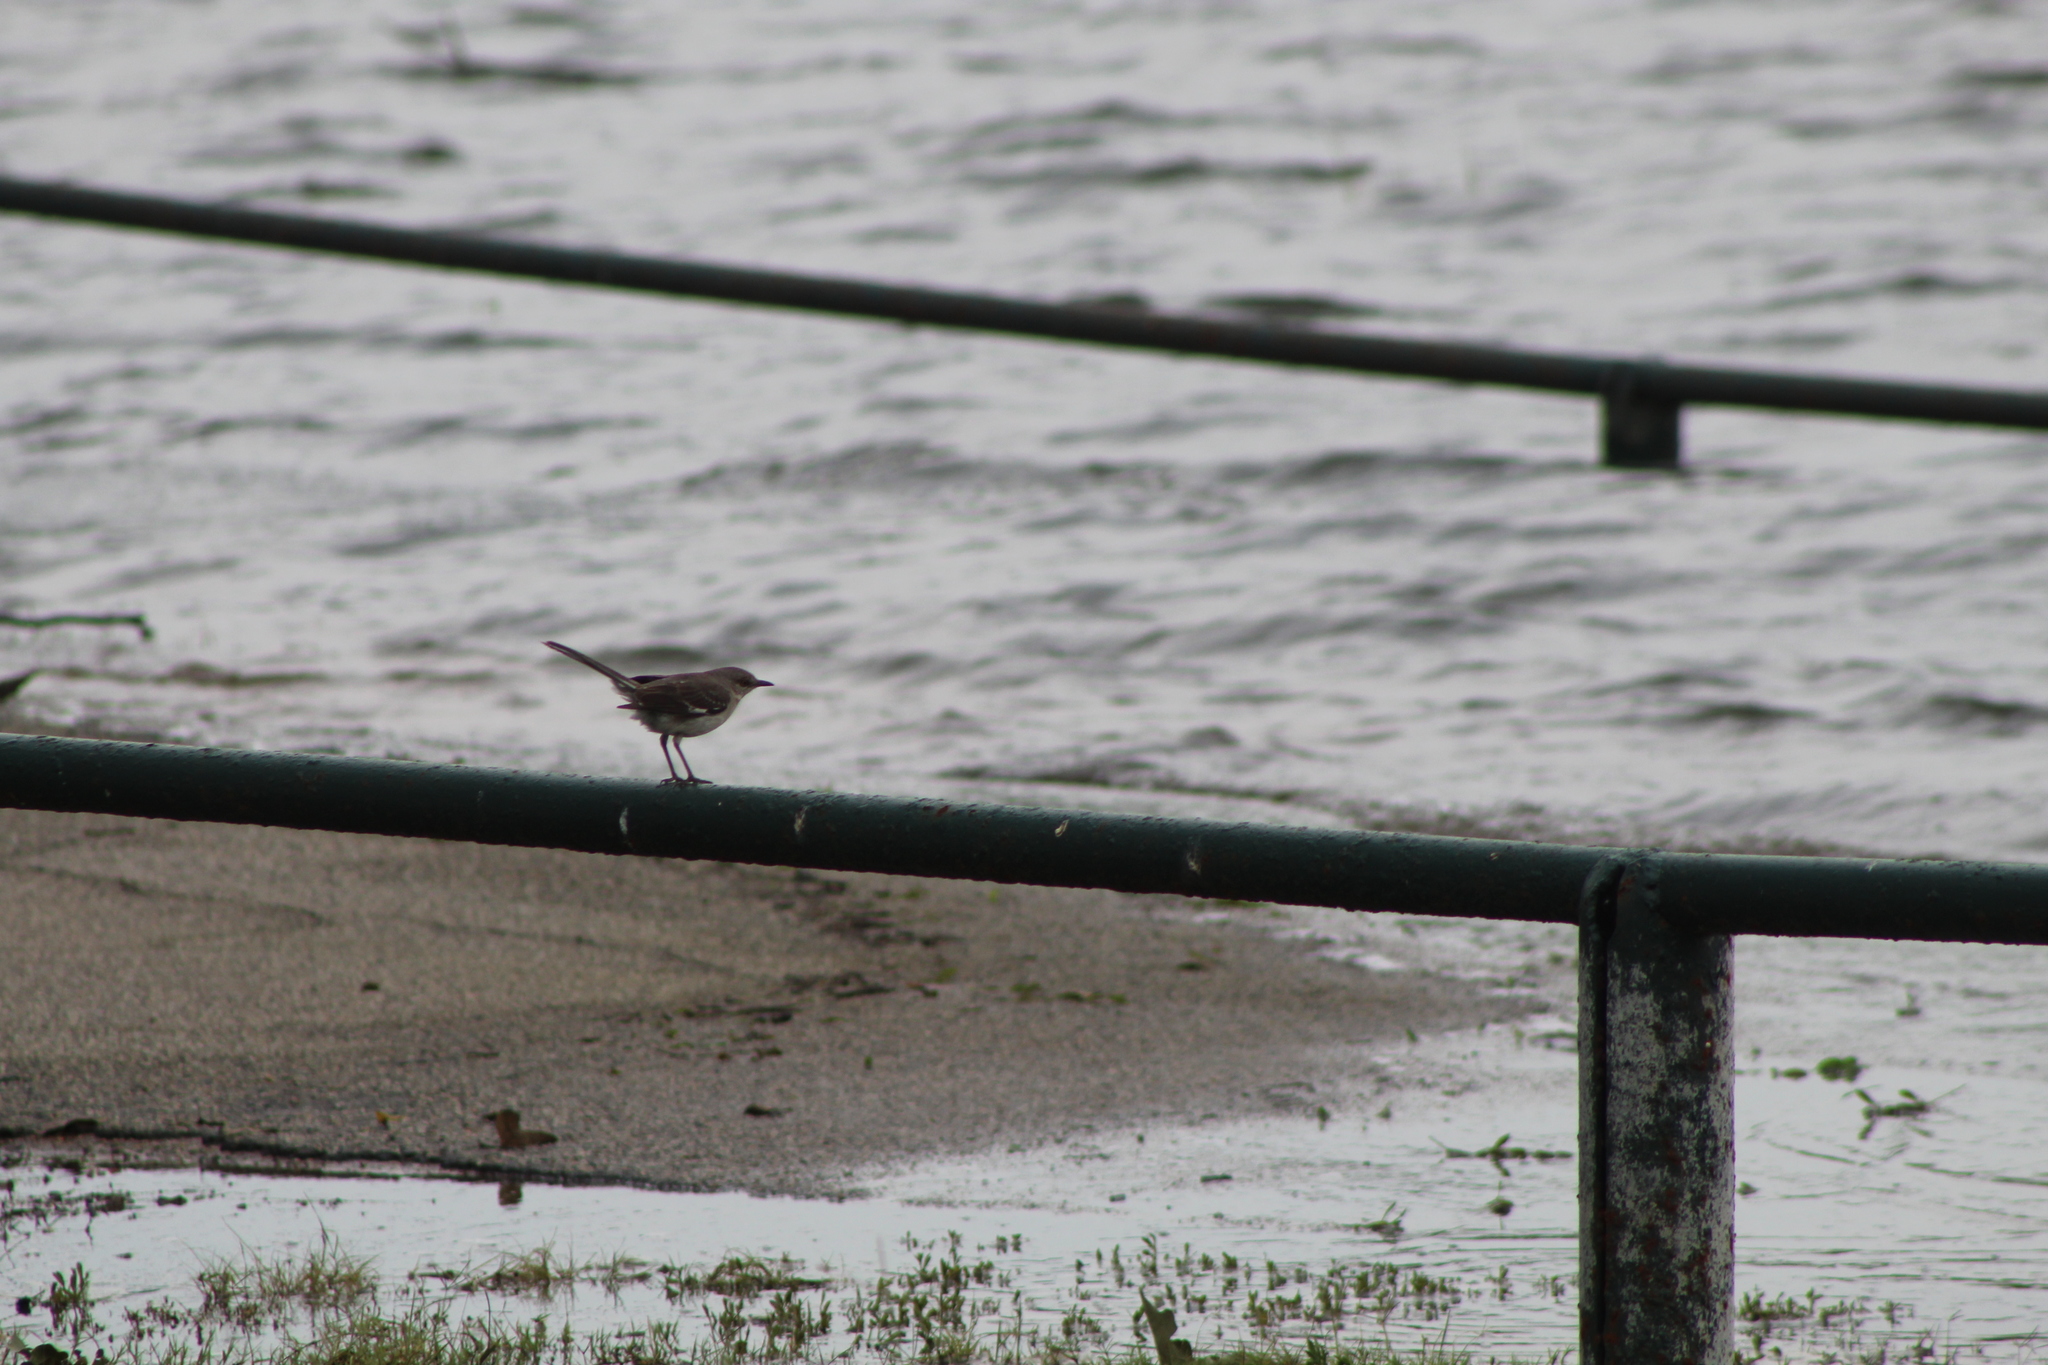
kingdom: Animalia
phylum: Chordata
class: Aves
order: Passeriformes
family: Mimidae
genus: Mimus
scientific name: Mimus polyglottos
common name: Northern mockingbird
